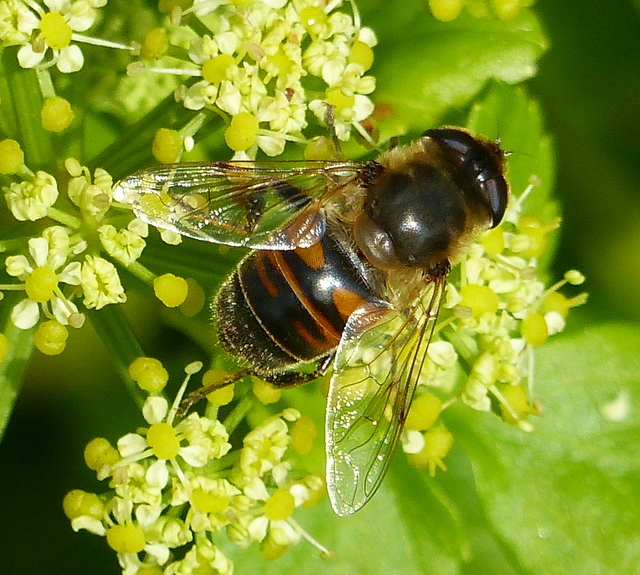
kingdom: Animalia
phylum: Arthropoda
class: Insecta
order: Diptera
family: Syrphidae
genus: Eristalis
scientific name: Eristalis tenax
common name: Drone fly
